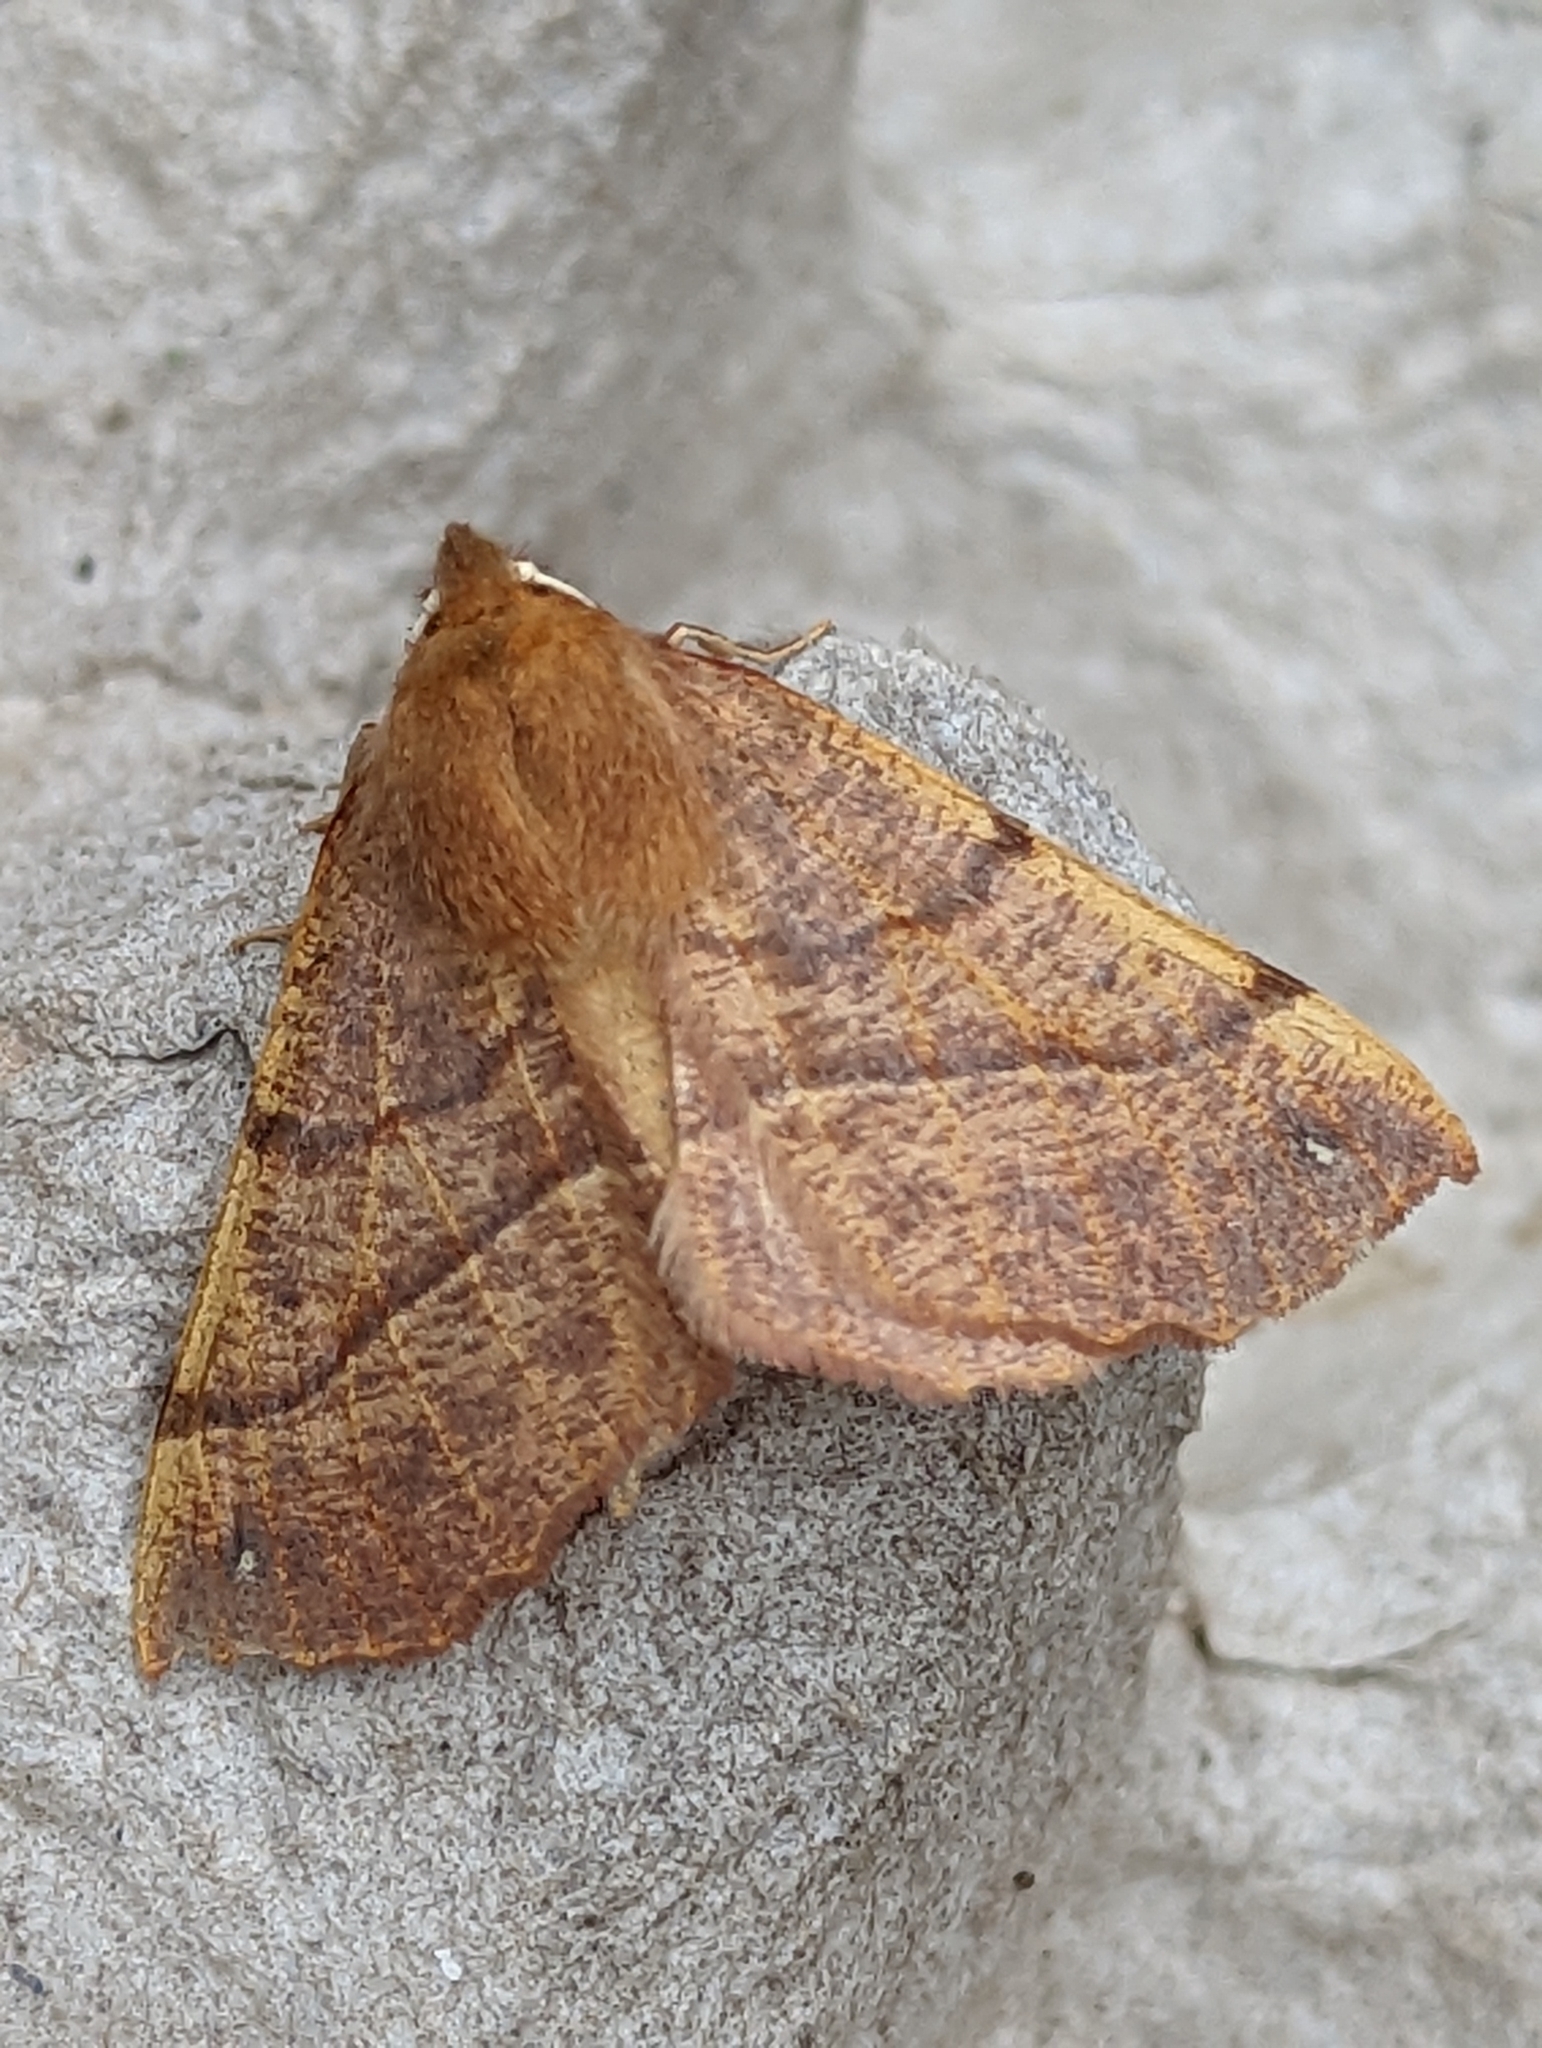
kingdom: Animalia
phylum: Arthropoda
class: Insecta
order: Lepidoptera
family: Geometridae
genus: Colotois
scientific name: Colotois pennaria
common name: Feathered thorn
